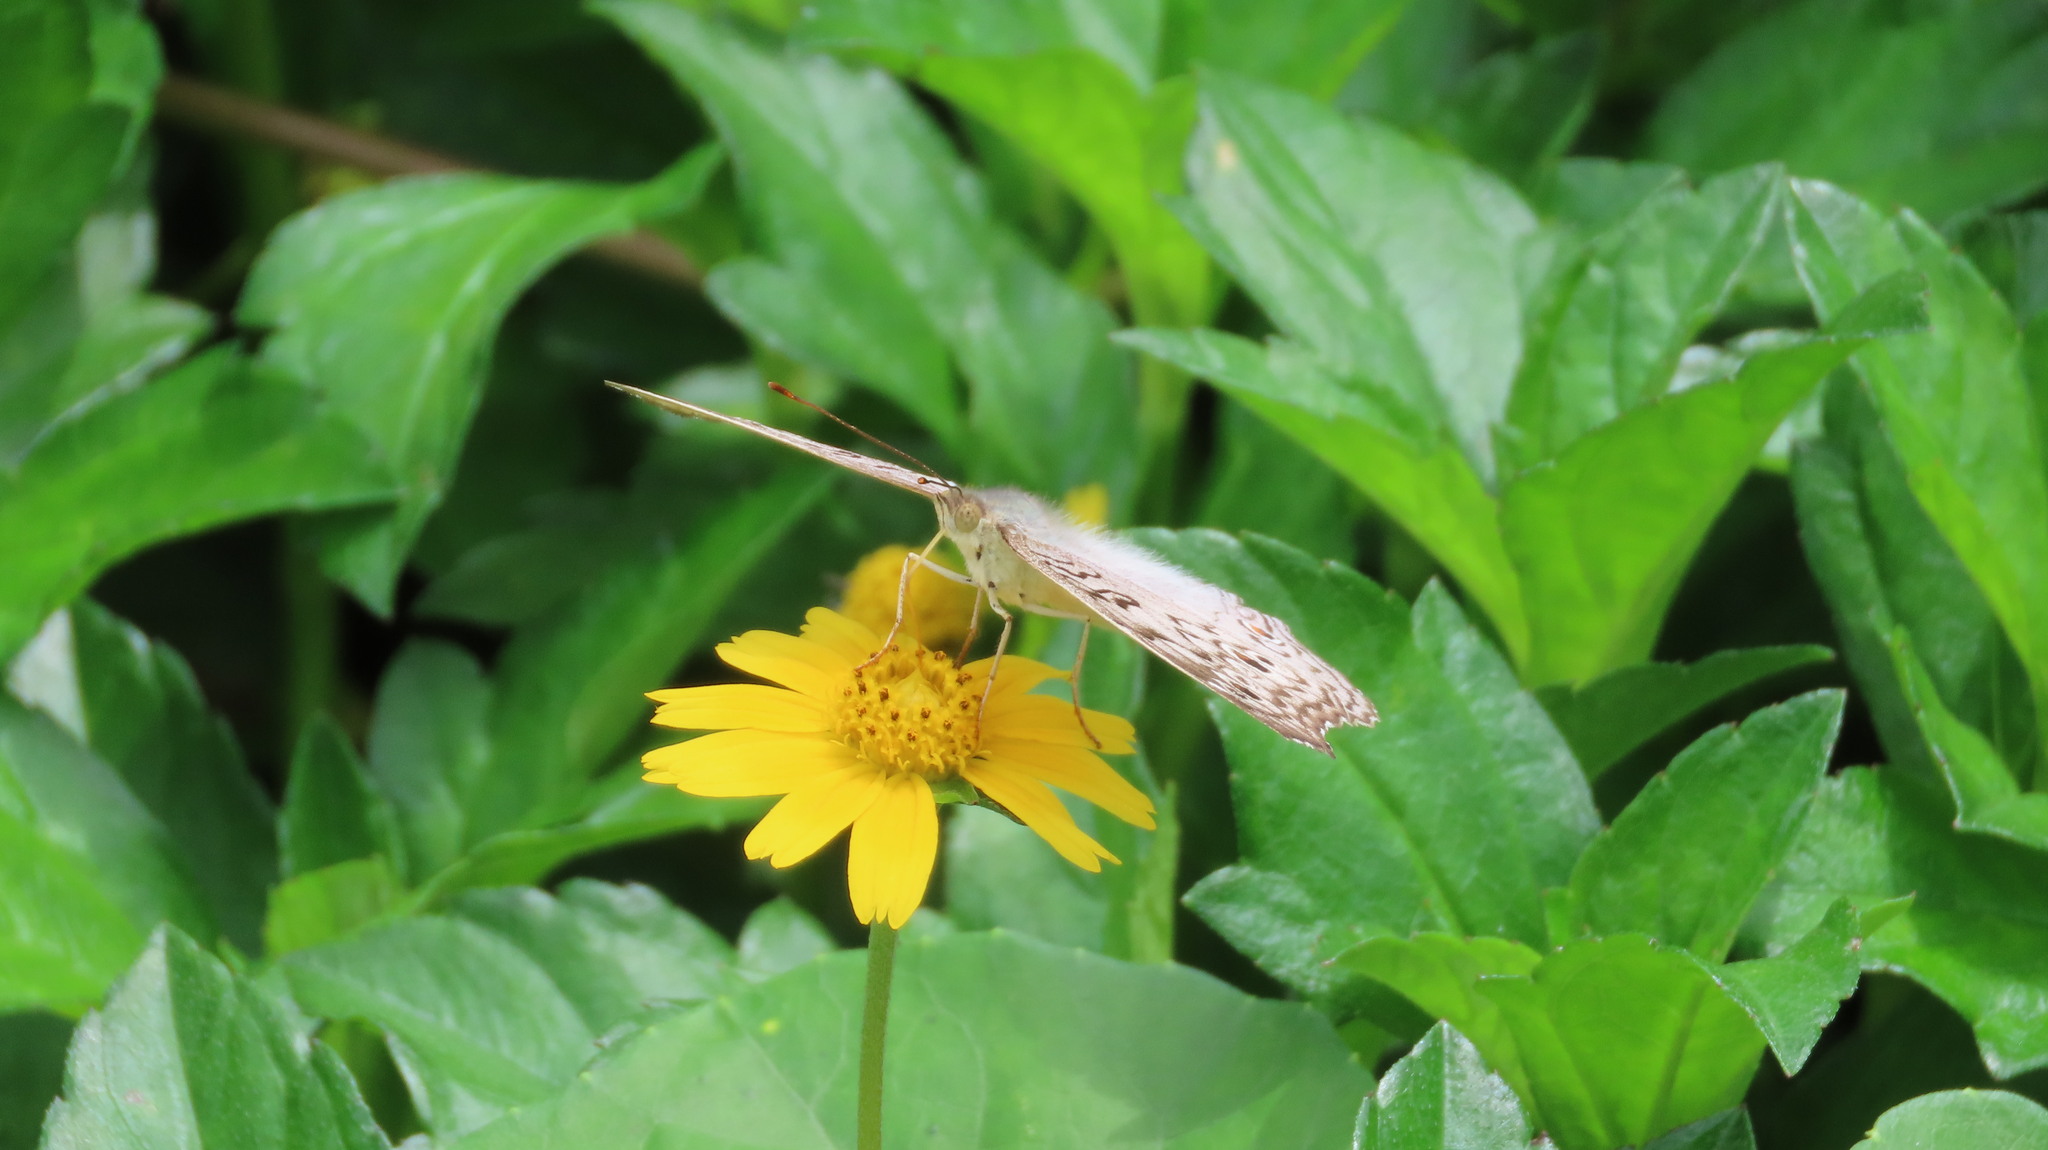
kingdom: Animalia
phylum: Arthropoda
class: Insecta
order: Lepidoptera
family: Nymphalidae
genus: Junonia
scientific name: Junonia atlites
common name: Grey pansy
